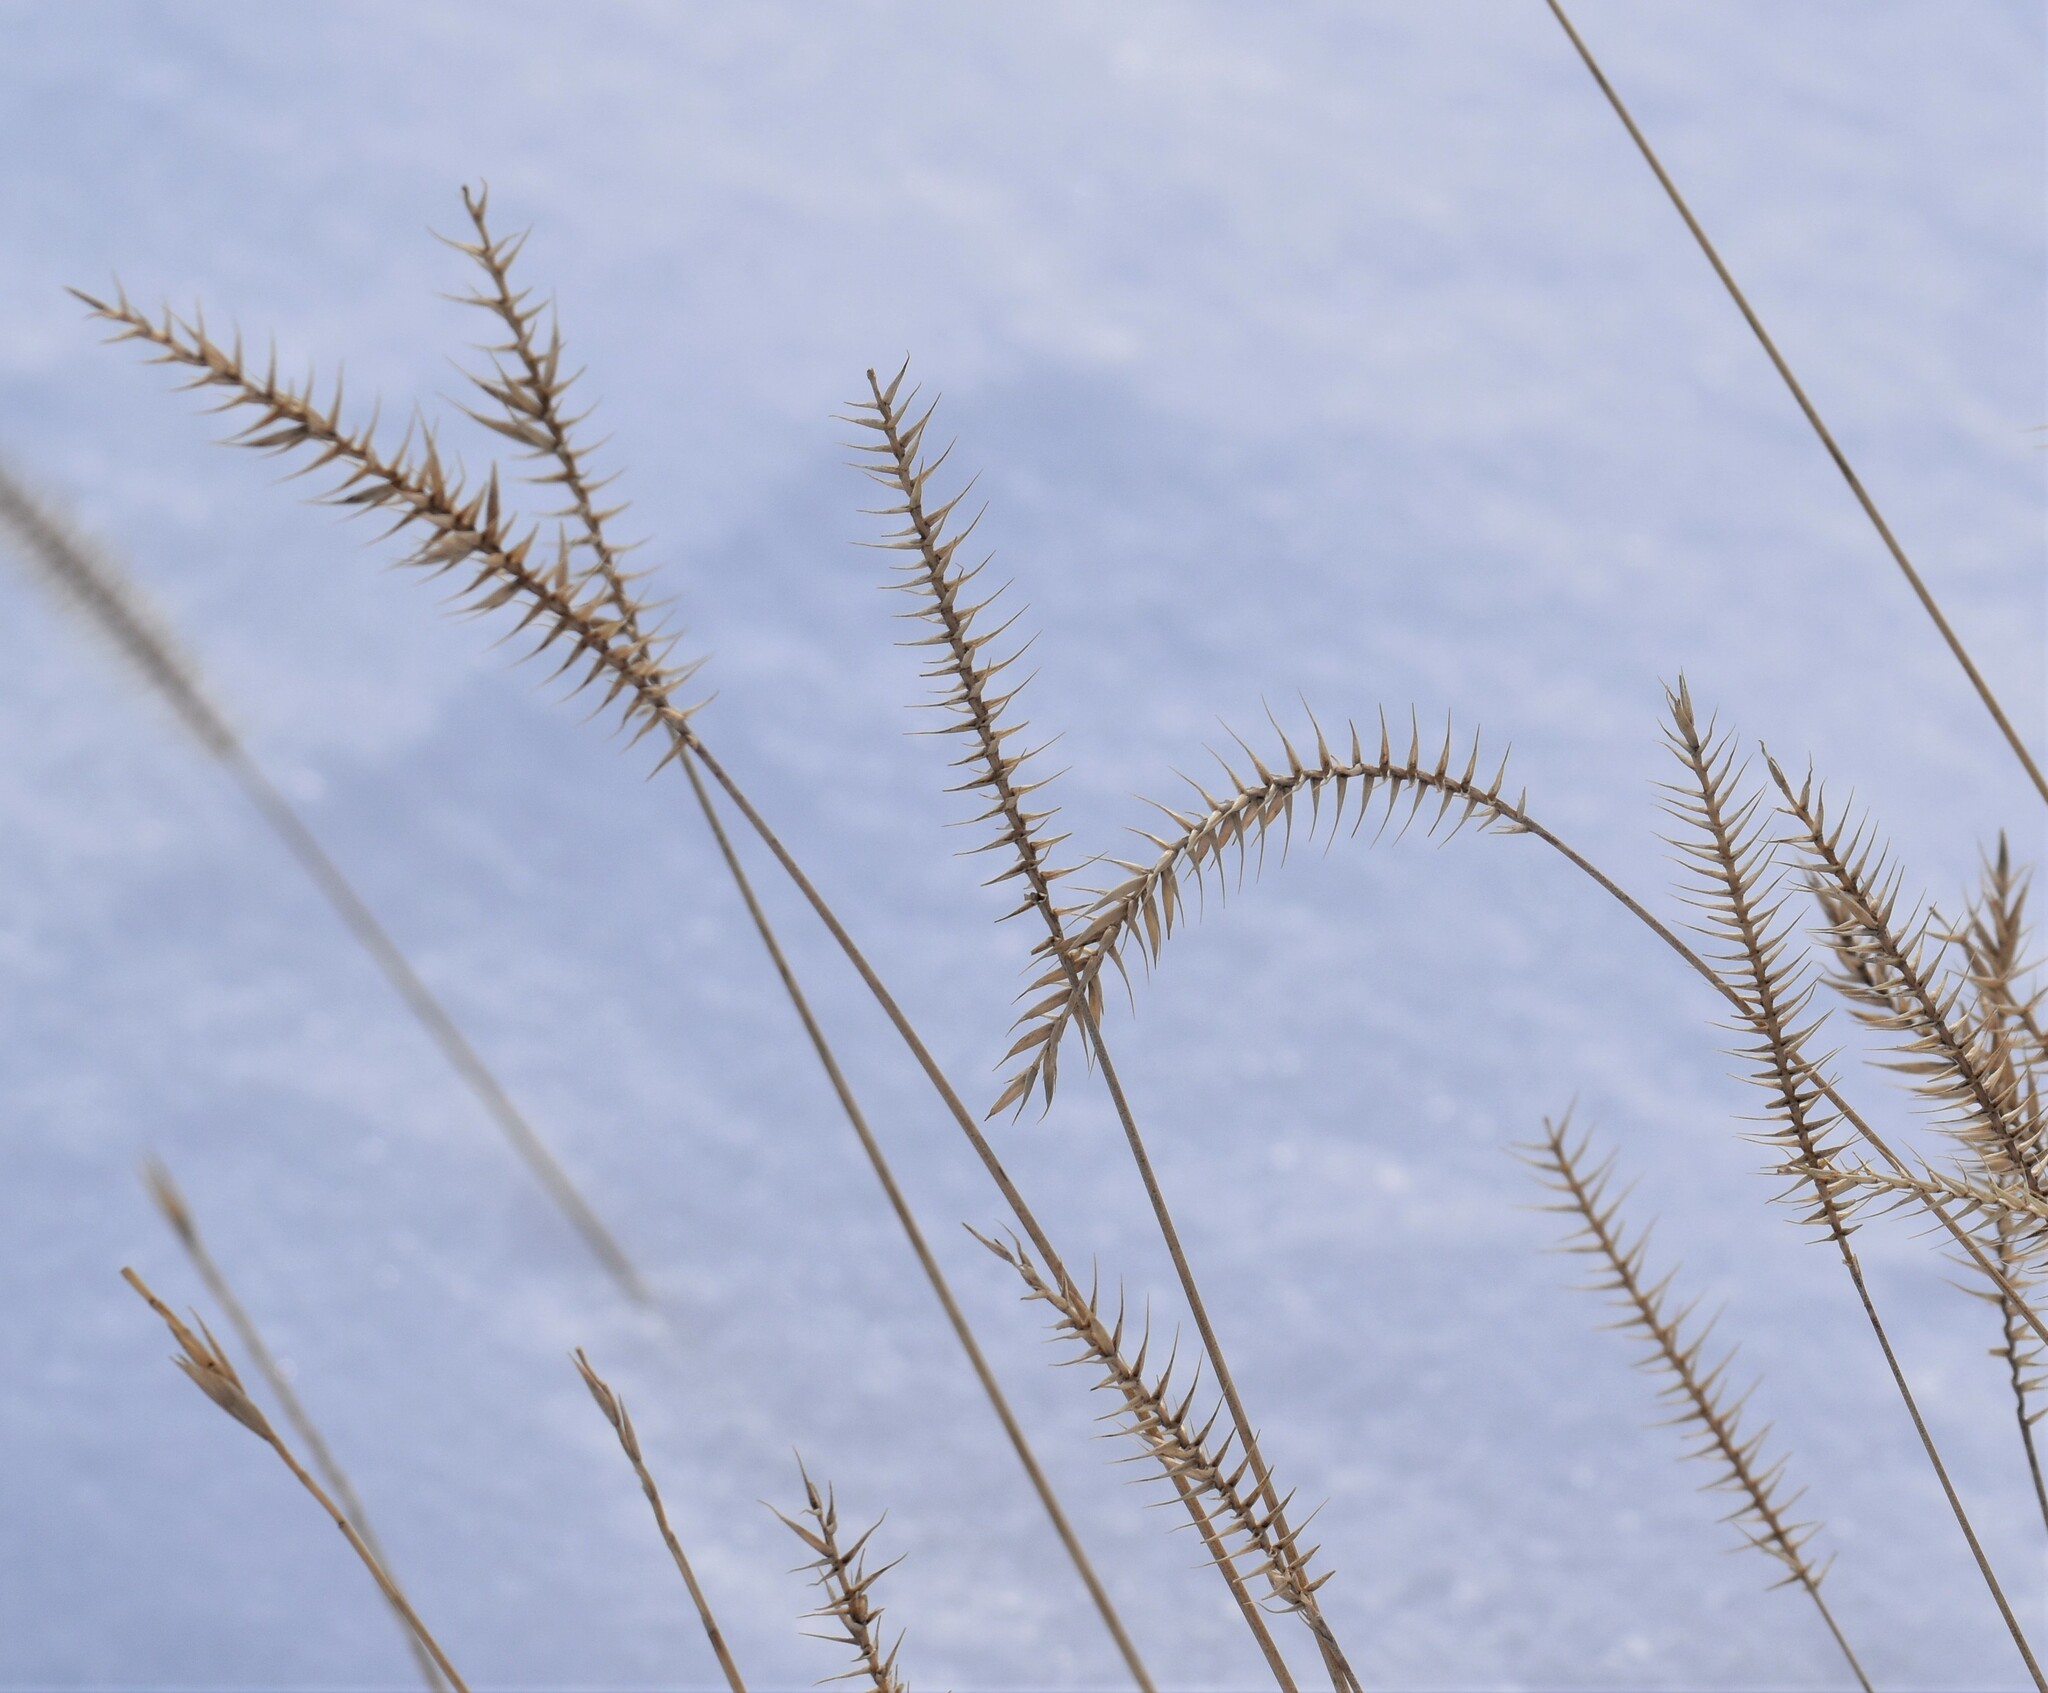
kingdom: Plantae
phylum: Tracheophyta
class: Liliopsida
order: Poales
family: Poaceae
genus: Agropyron
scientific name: Agropyron cristatum
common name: Crested wheatgrass
